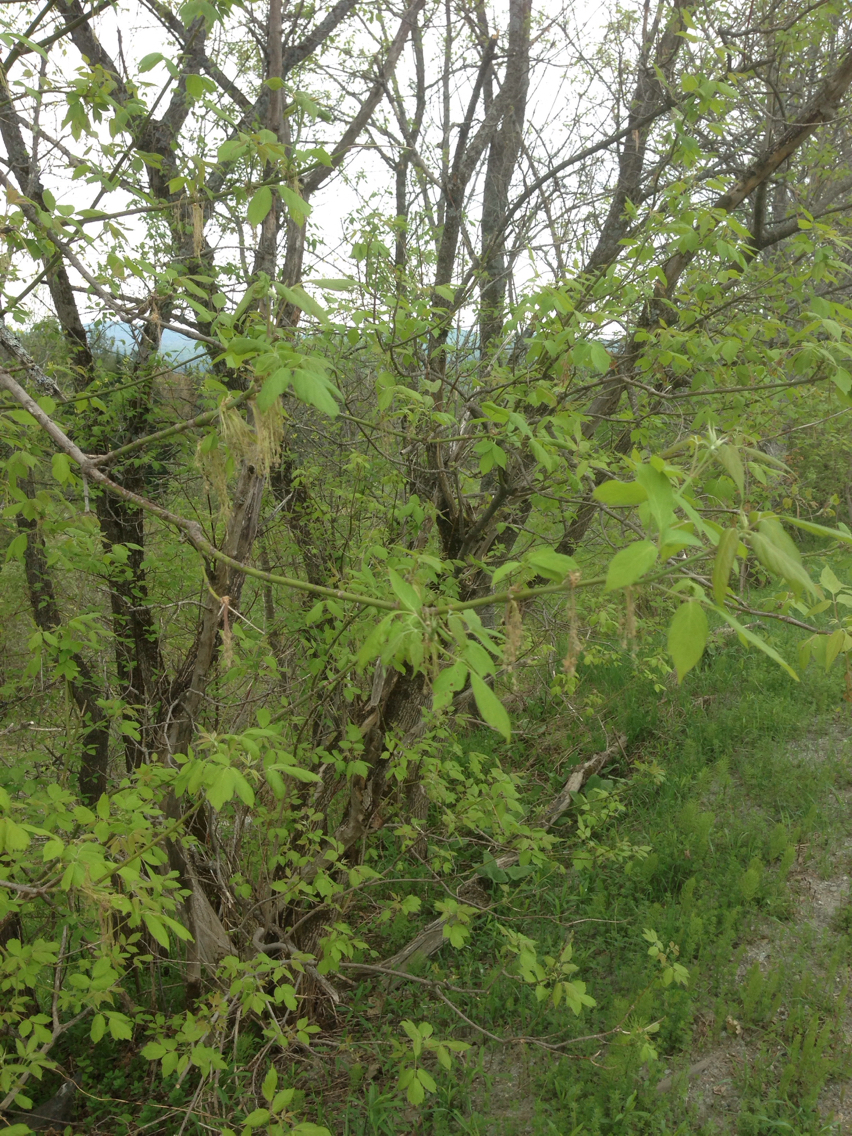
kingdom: Plantae
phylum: Tracheophyta
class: Magnoliopsida
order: Sapindales
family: Sapindaceae
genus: Acer
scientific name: Acer negundo
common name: Ashleaf maple
